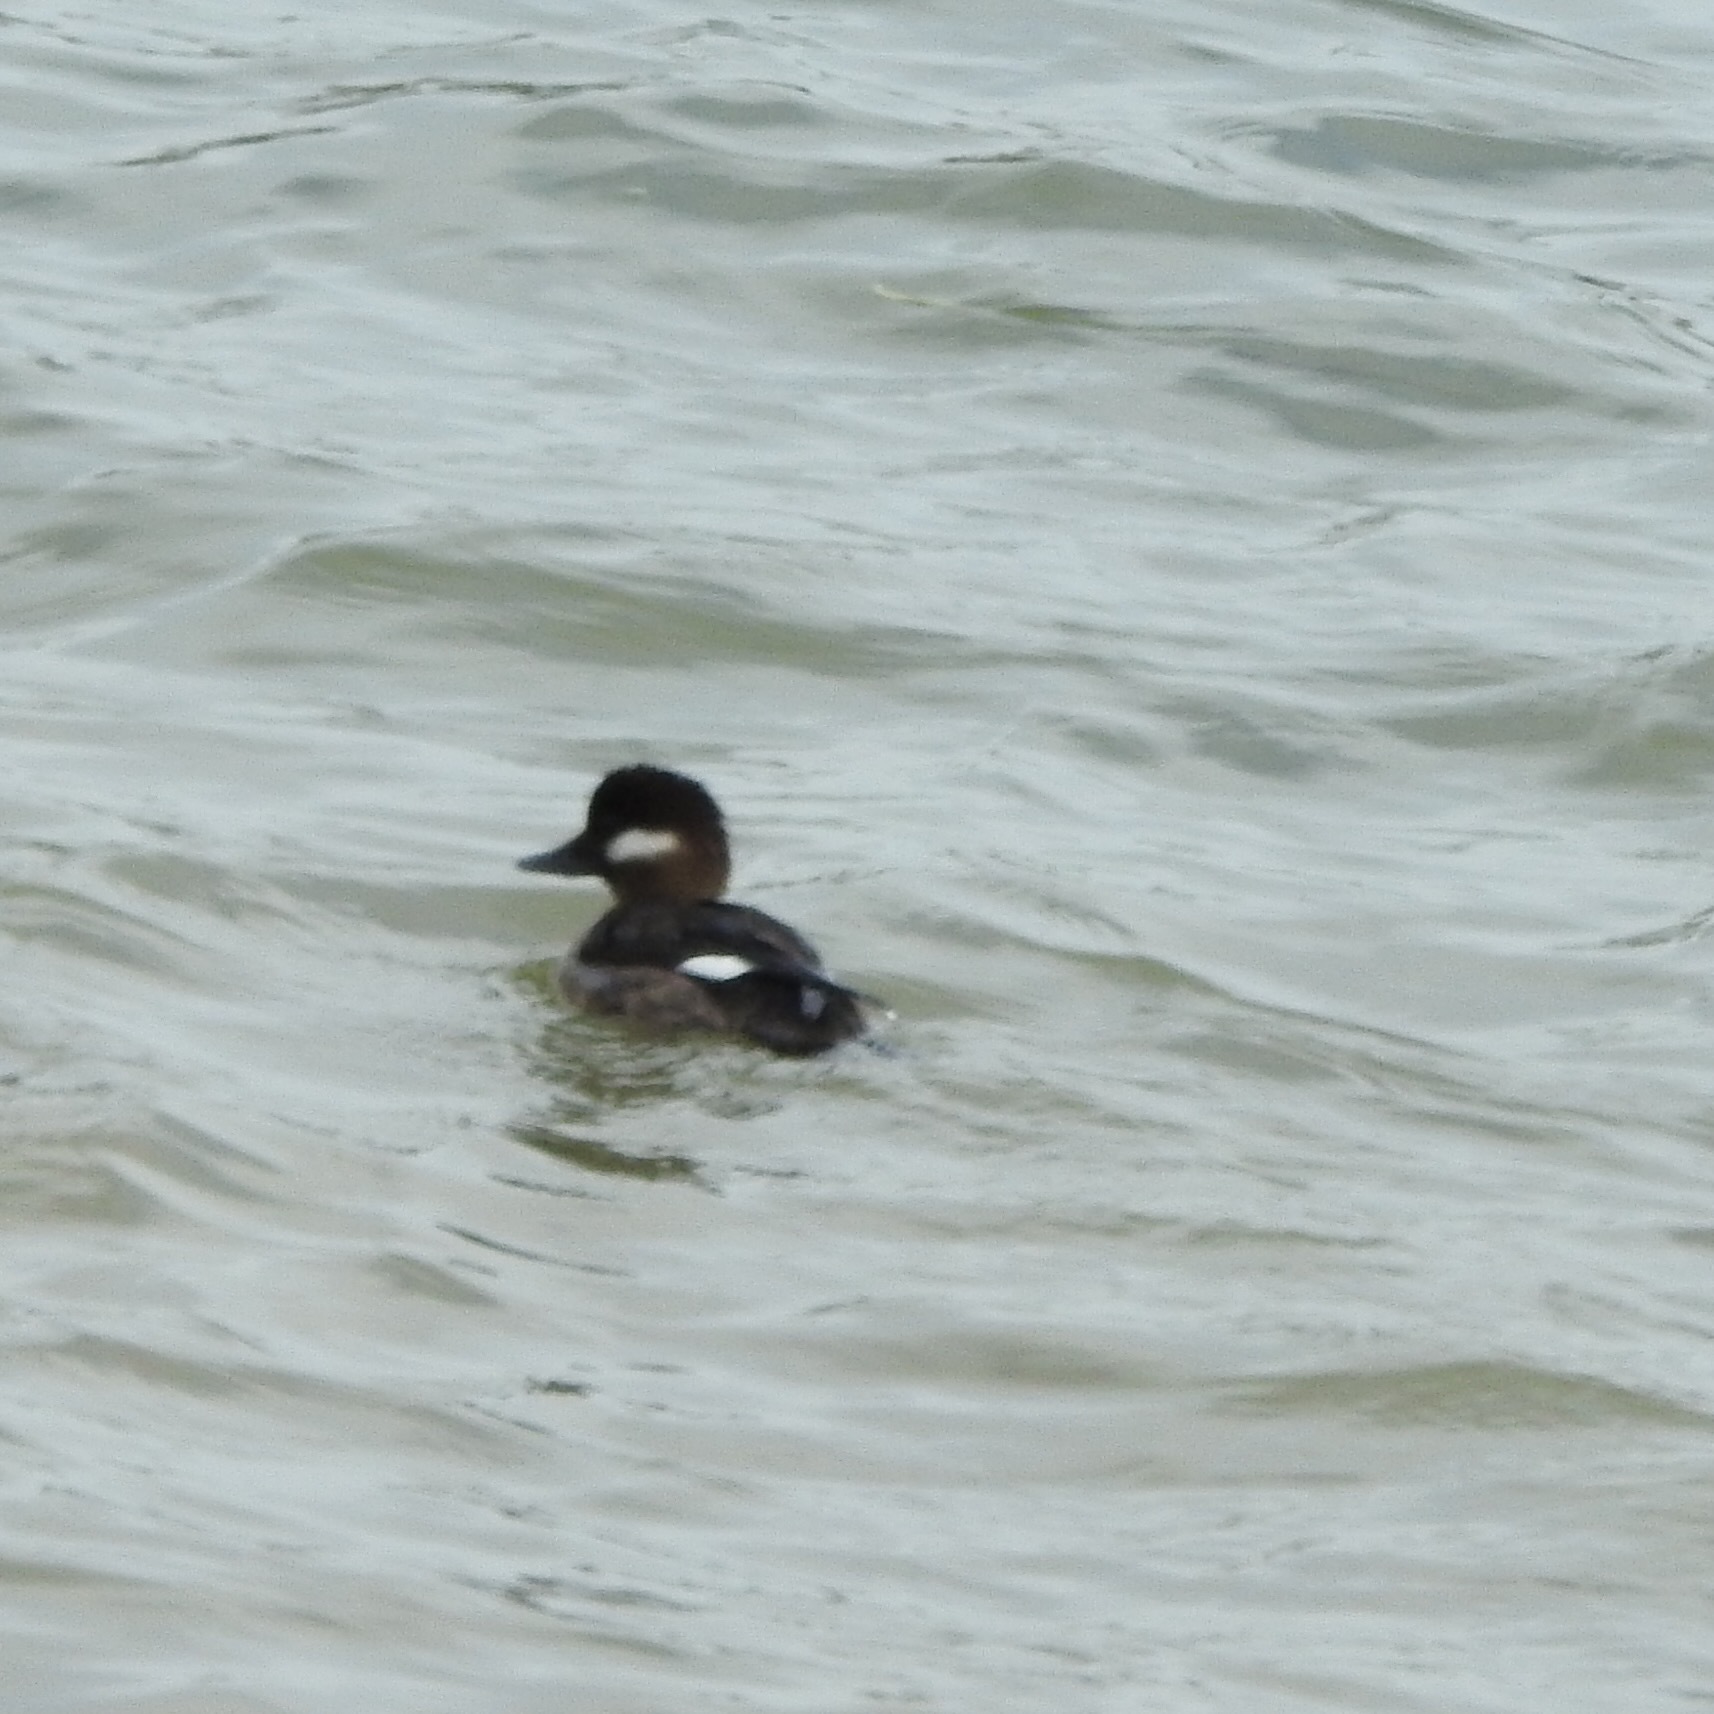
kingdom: Animalia
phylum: Chordata
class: Aves
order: Anseriformes
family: Anatidae
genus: Bucephala
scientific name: Bucephala albeola
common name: Bufflehead
